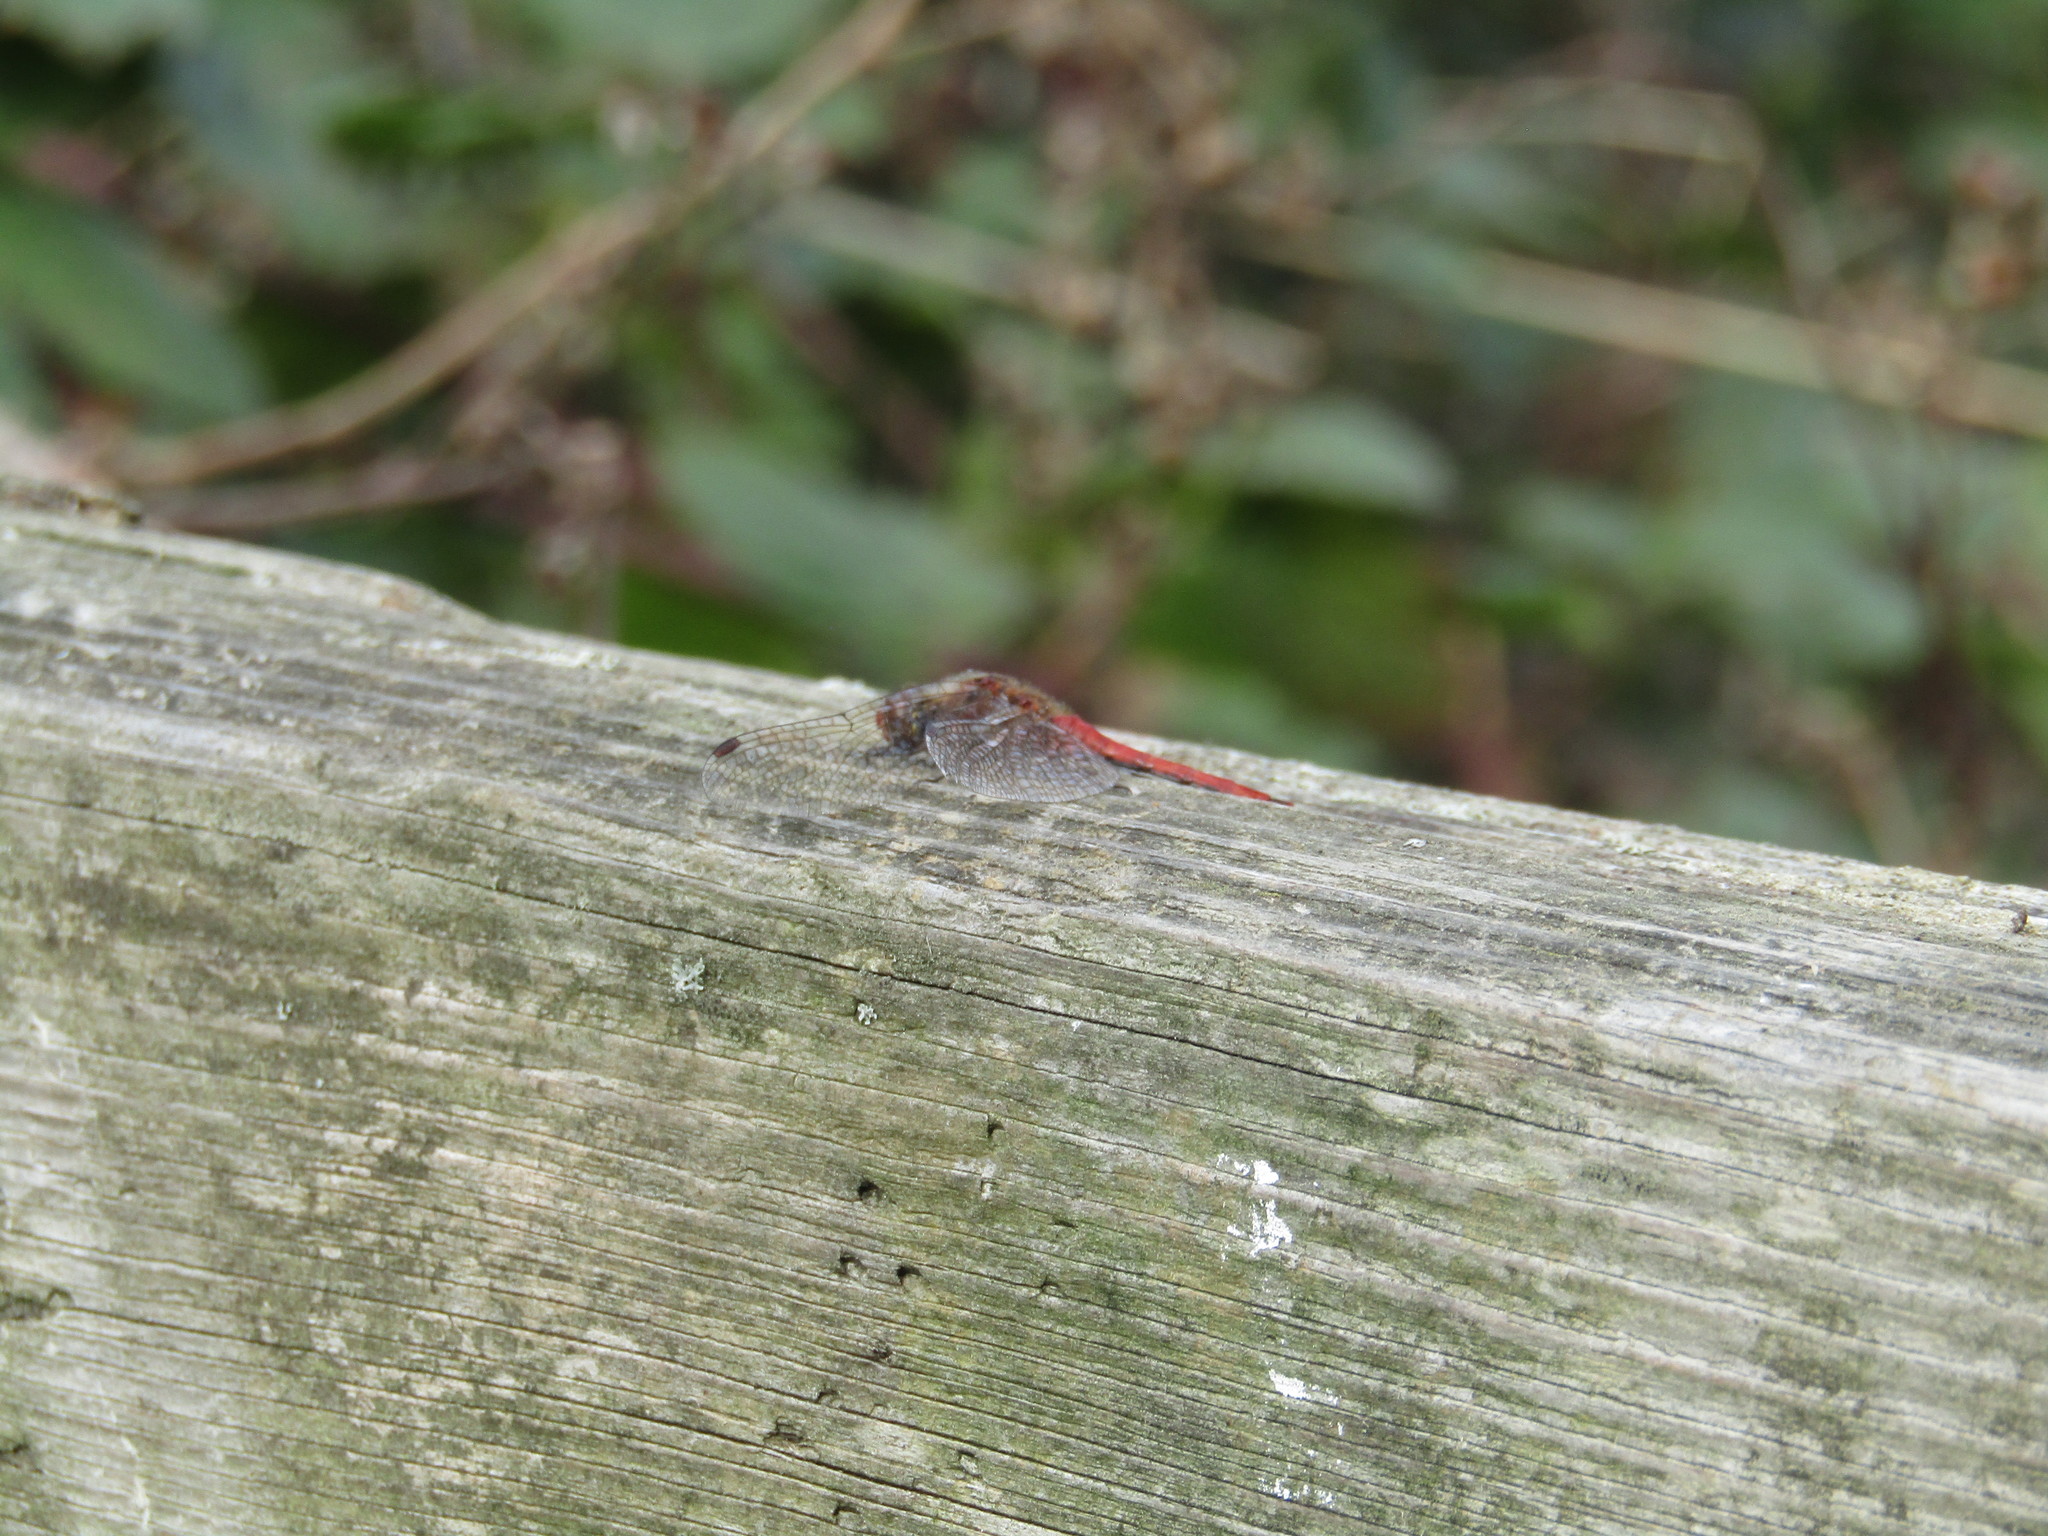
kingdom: Animalia
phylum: Arthropoda
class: Insecta
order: Odonata
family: Libellulidae
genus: Sympetrum
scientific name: Sympetrum sanguineum
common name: Ruddy darter
